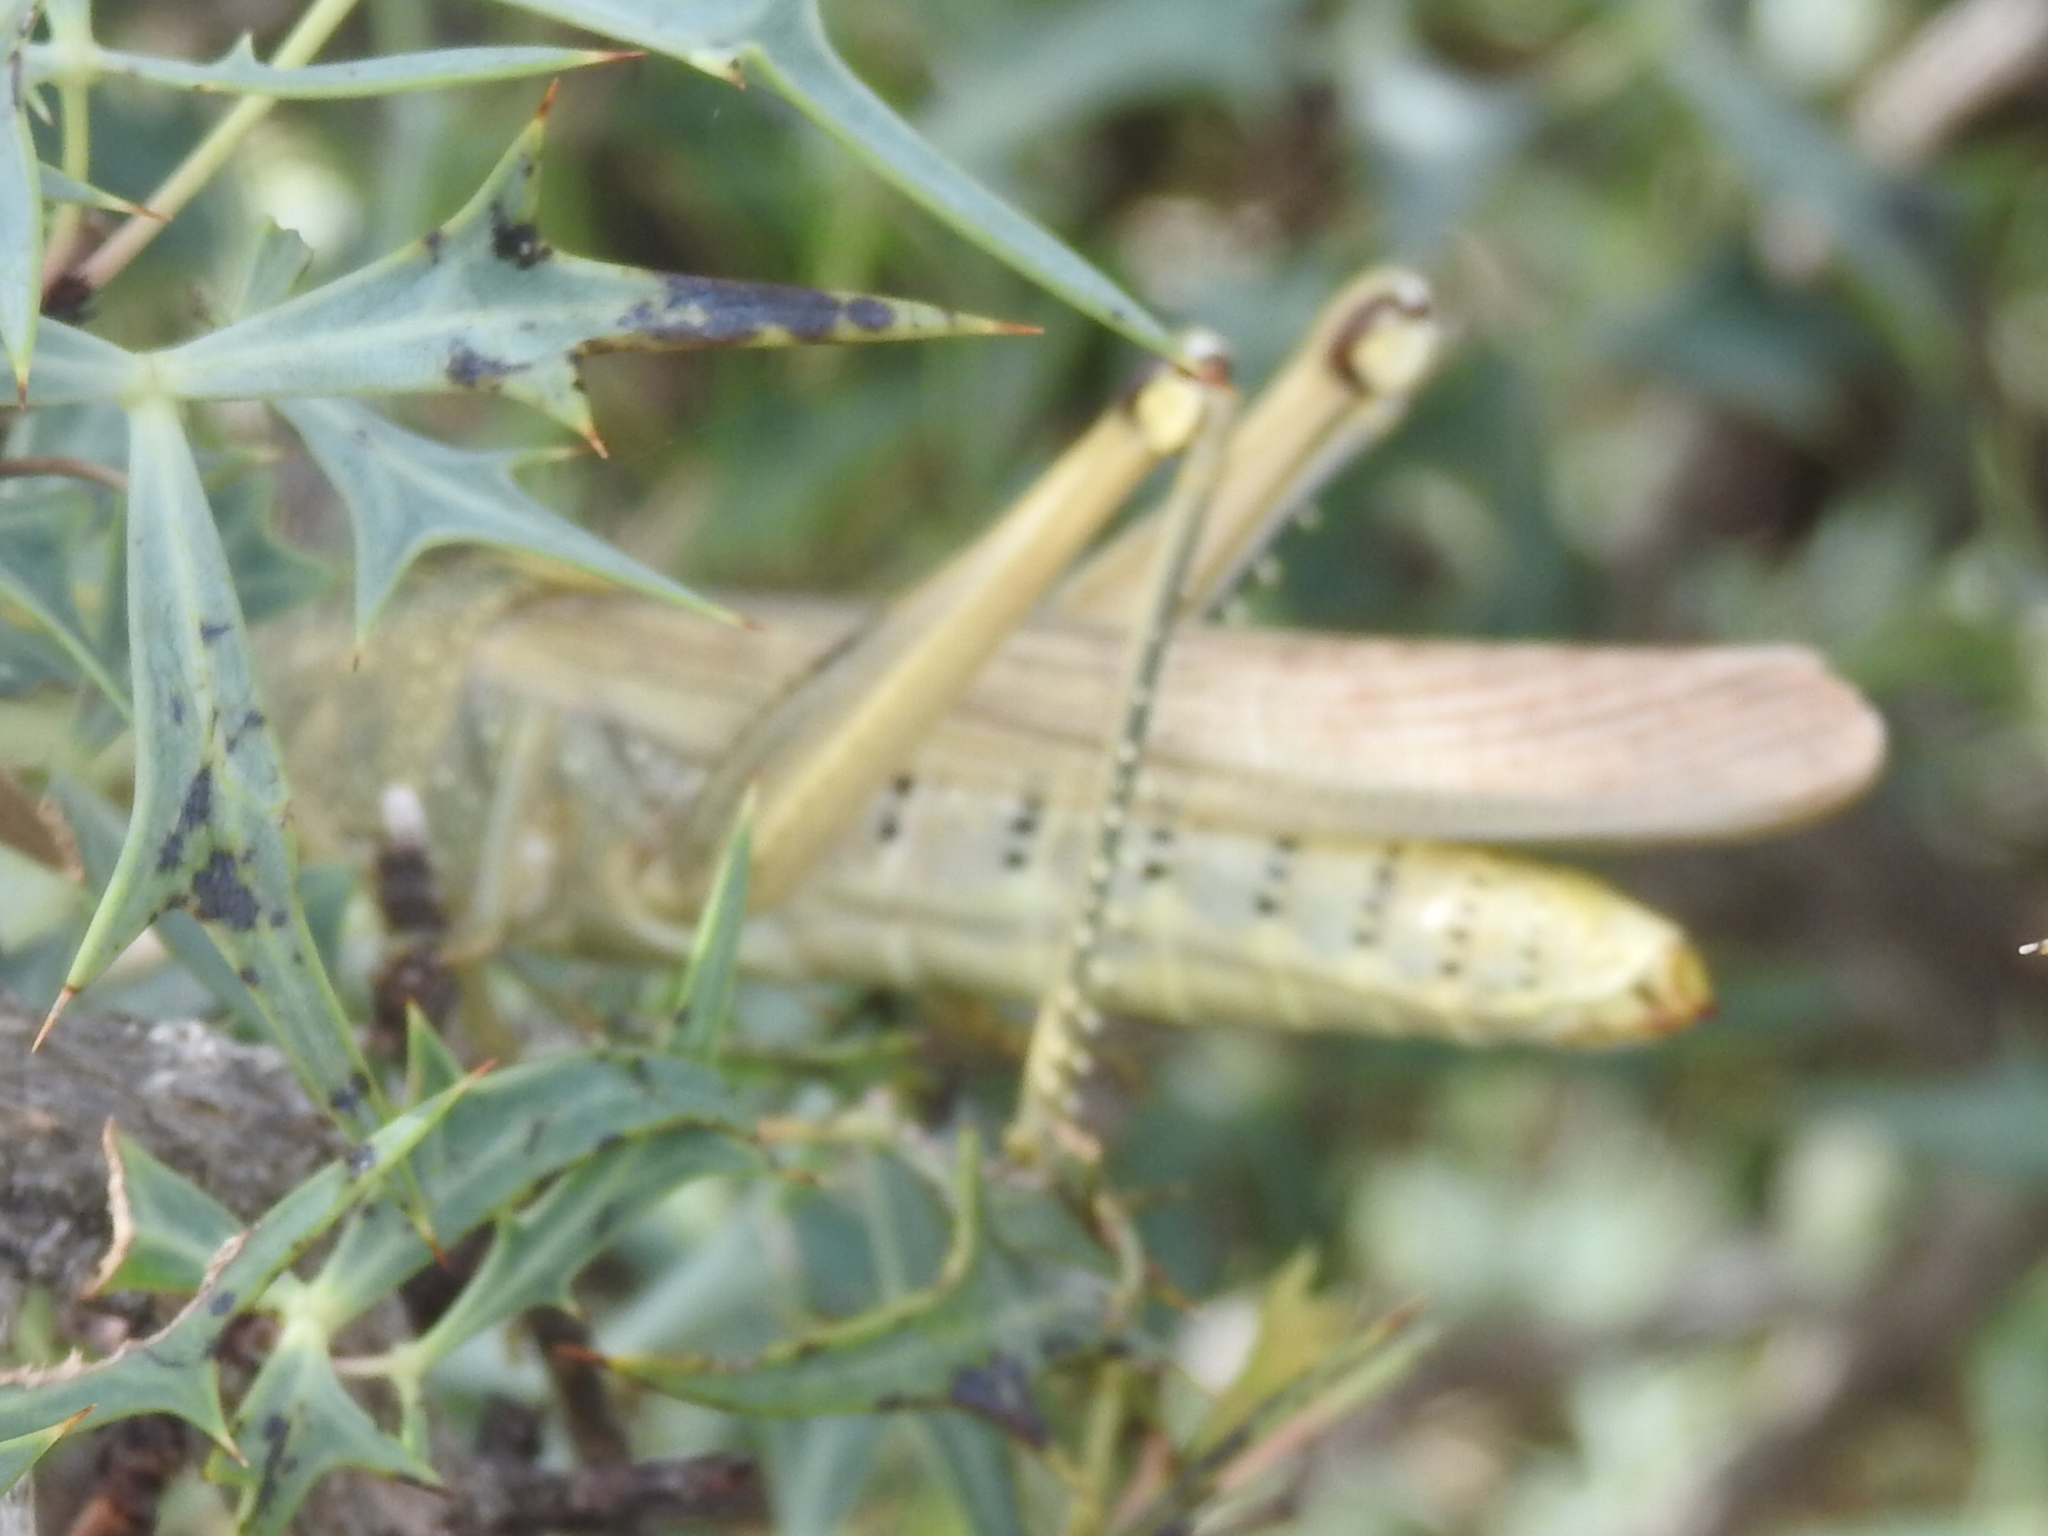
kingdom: Animalia
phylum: Arthropoda
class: Insecta
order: Orthoptera
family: Acrididae
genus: Schistocerca
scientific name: Schistocerca lineata
